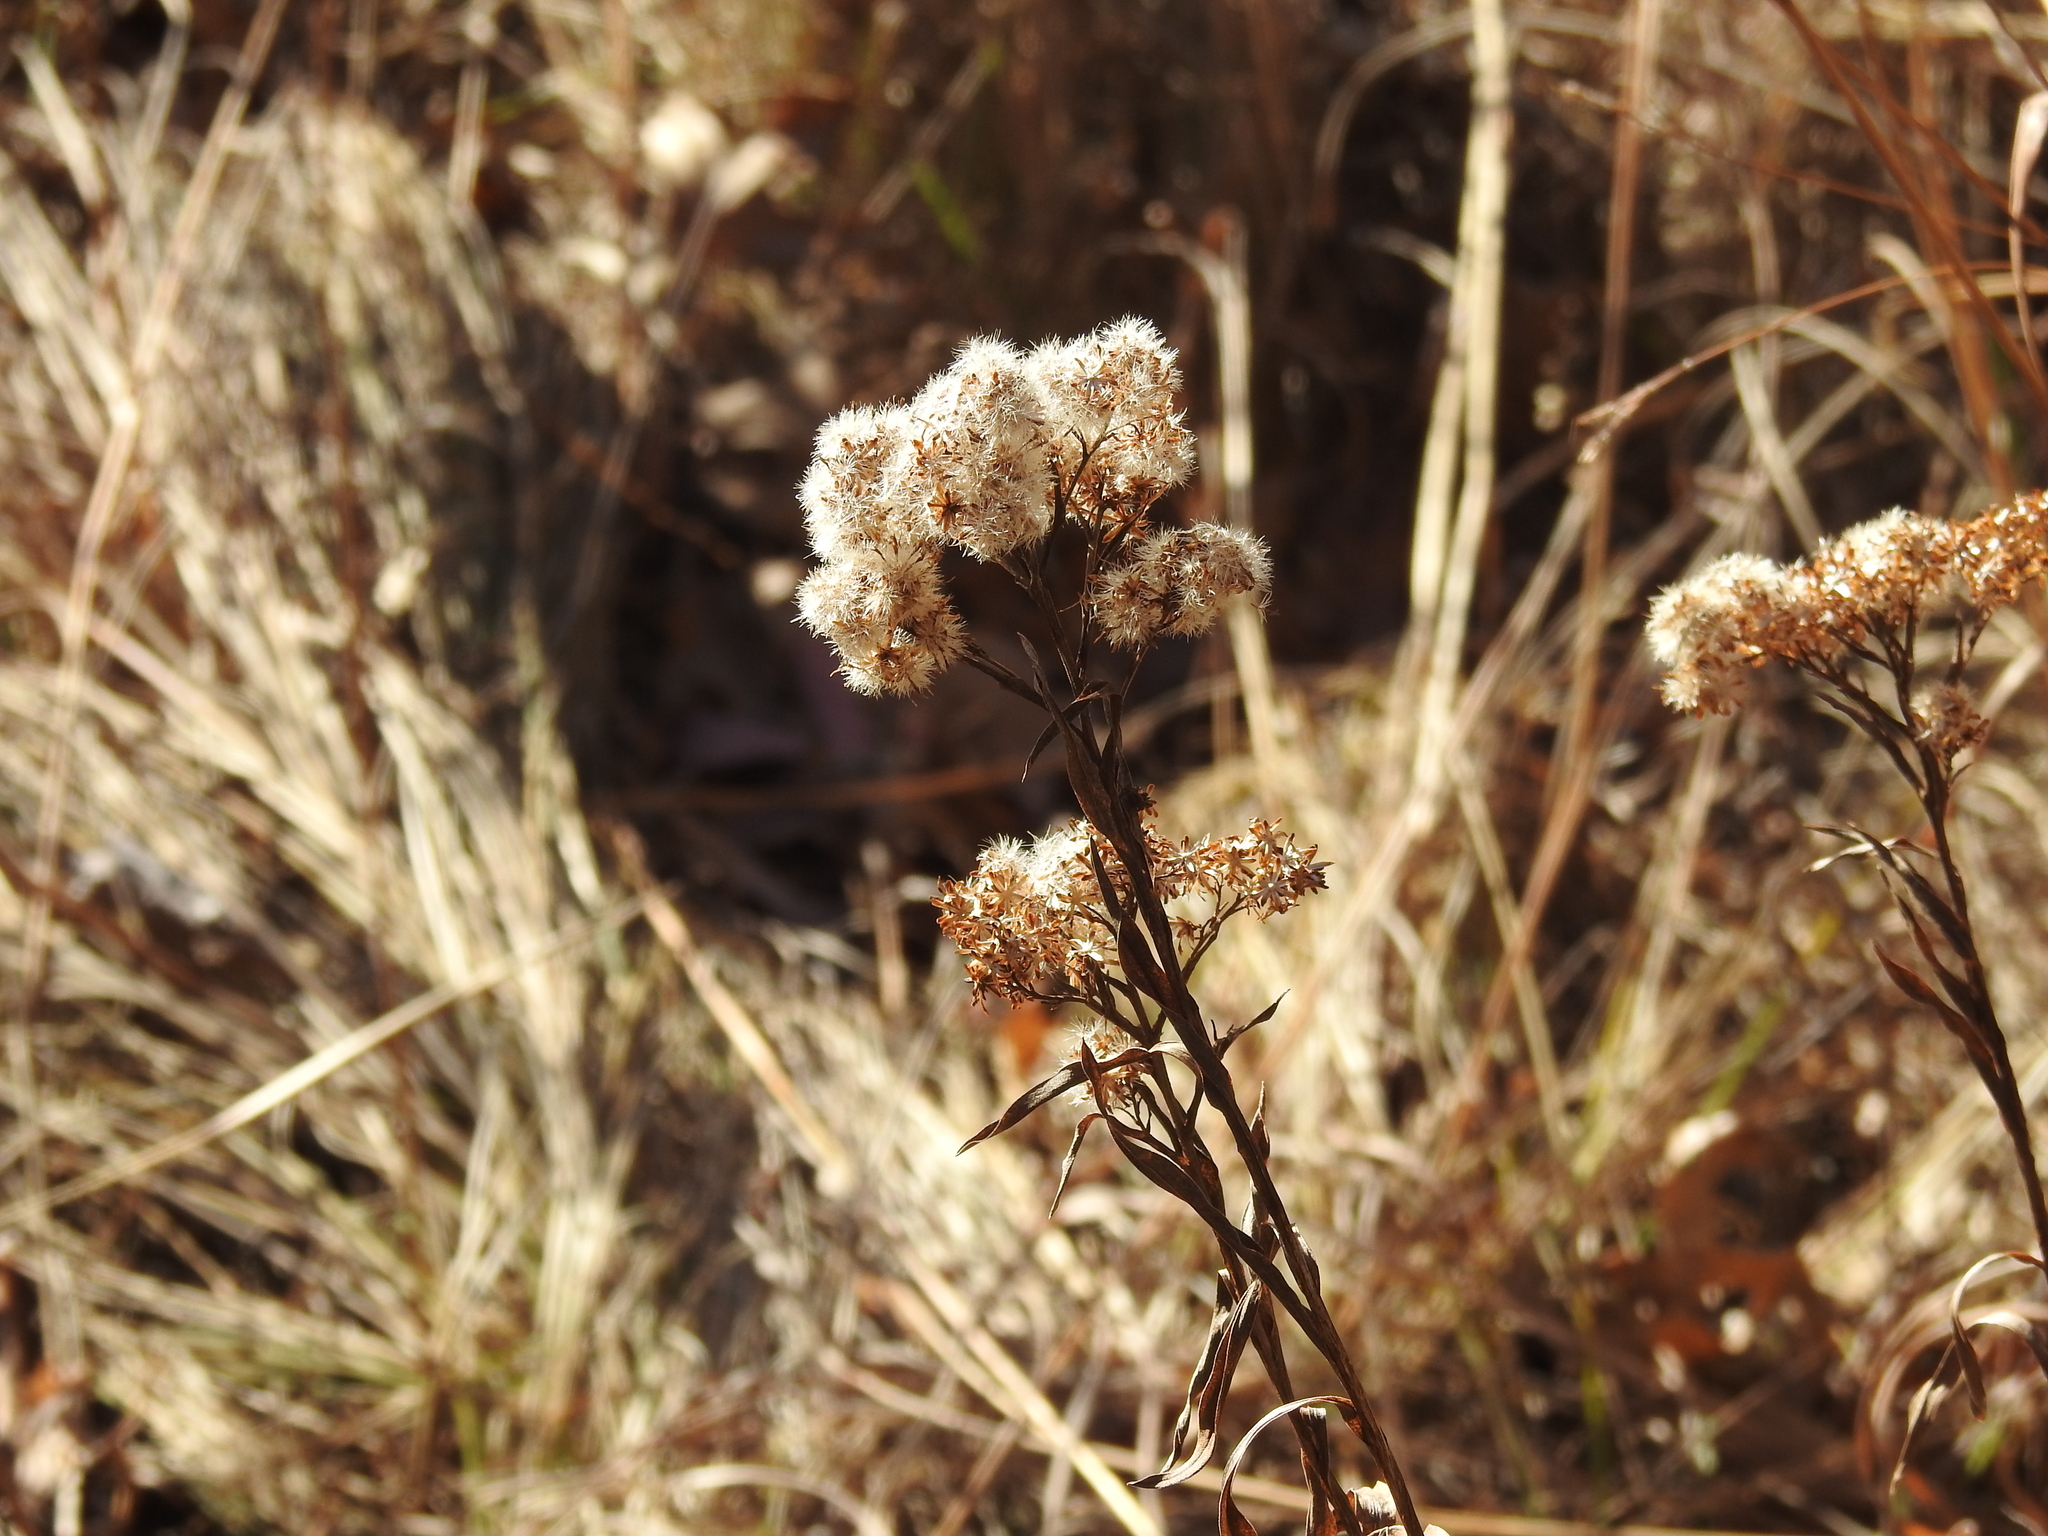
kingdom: Plantae
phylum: Tracheophyta
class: Magnoliopsida
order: Asterales
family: Asteraceae
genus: Solidago
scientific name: Solidago riddellii
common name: Riddell's goldenrod
